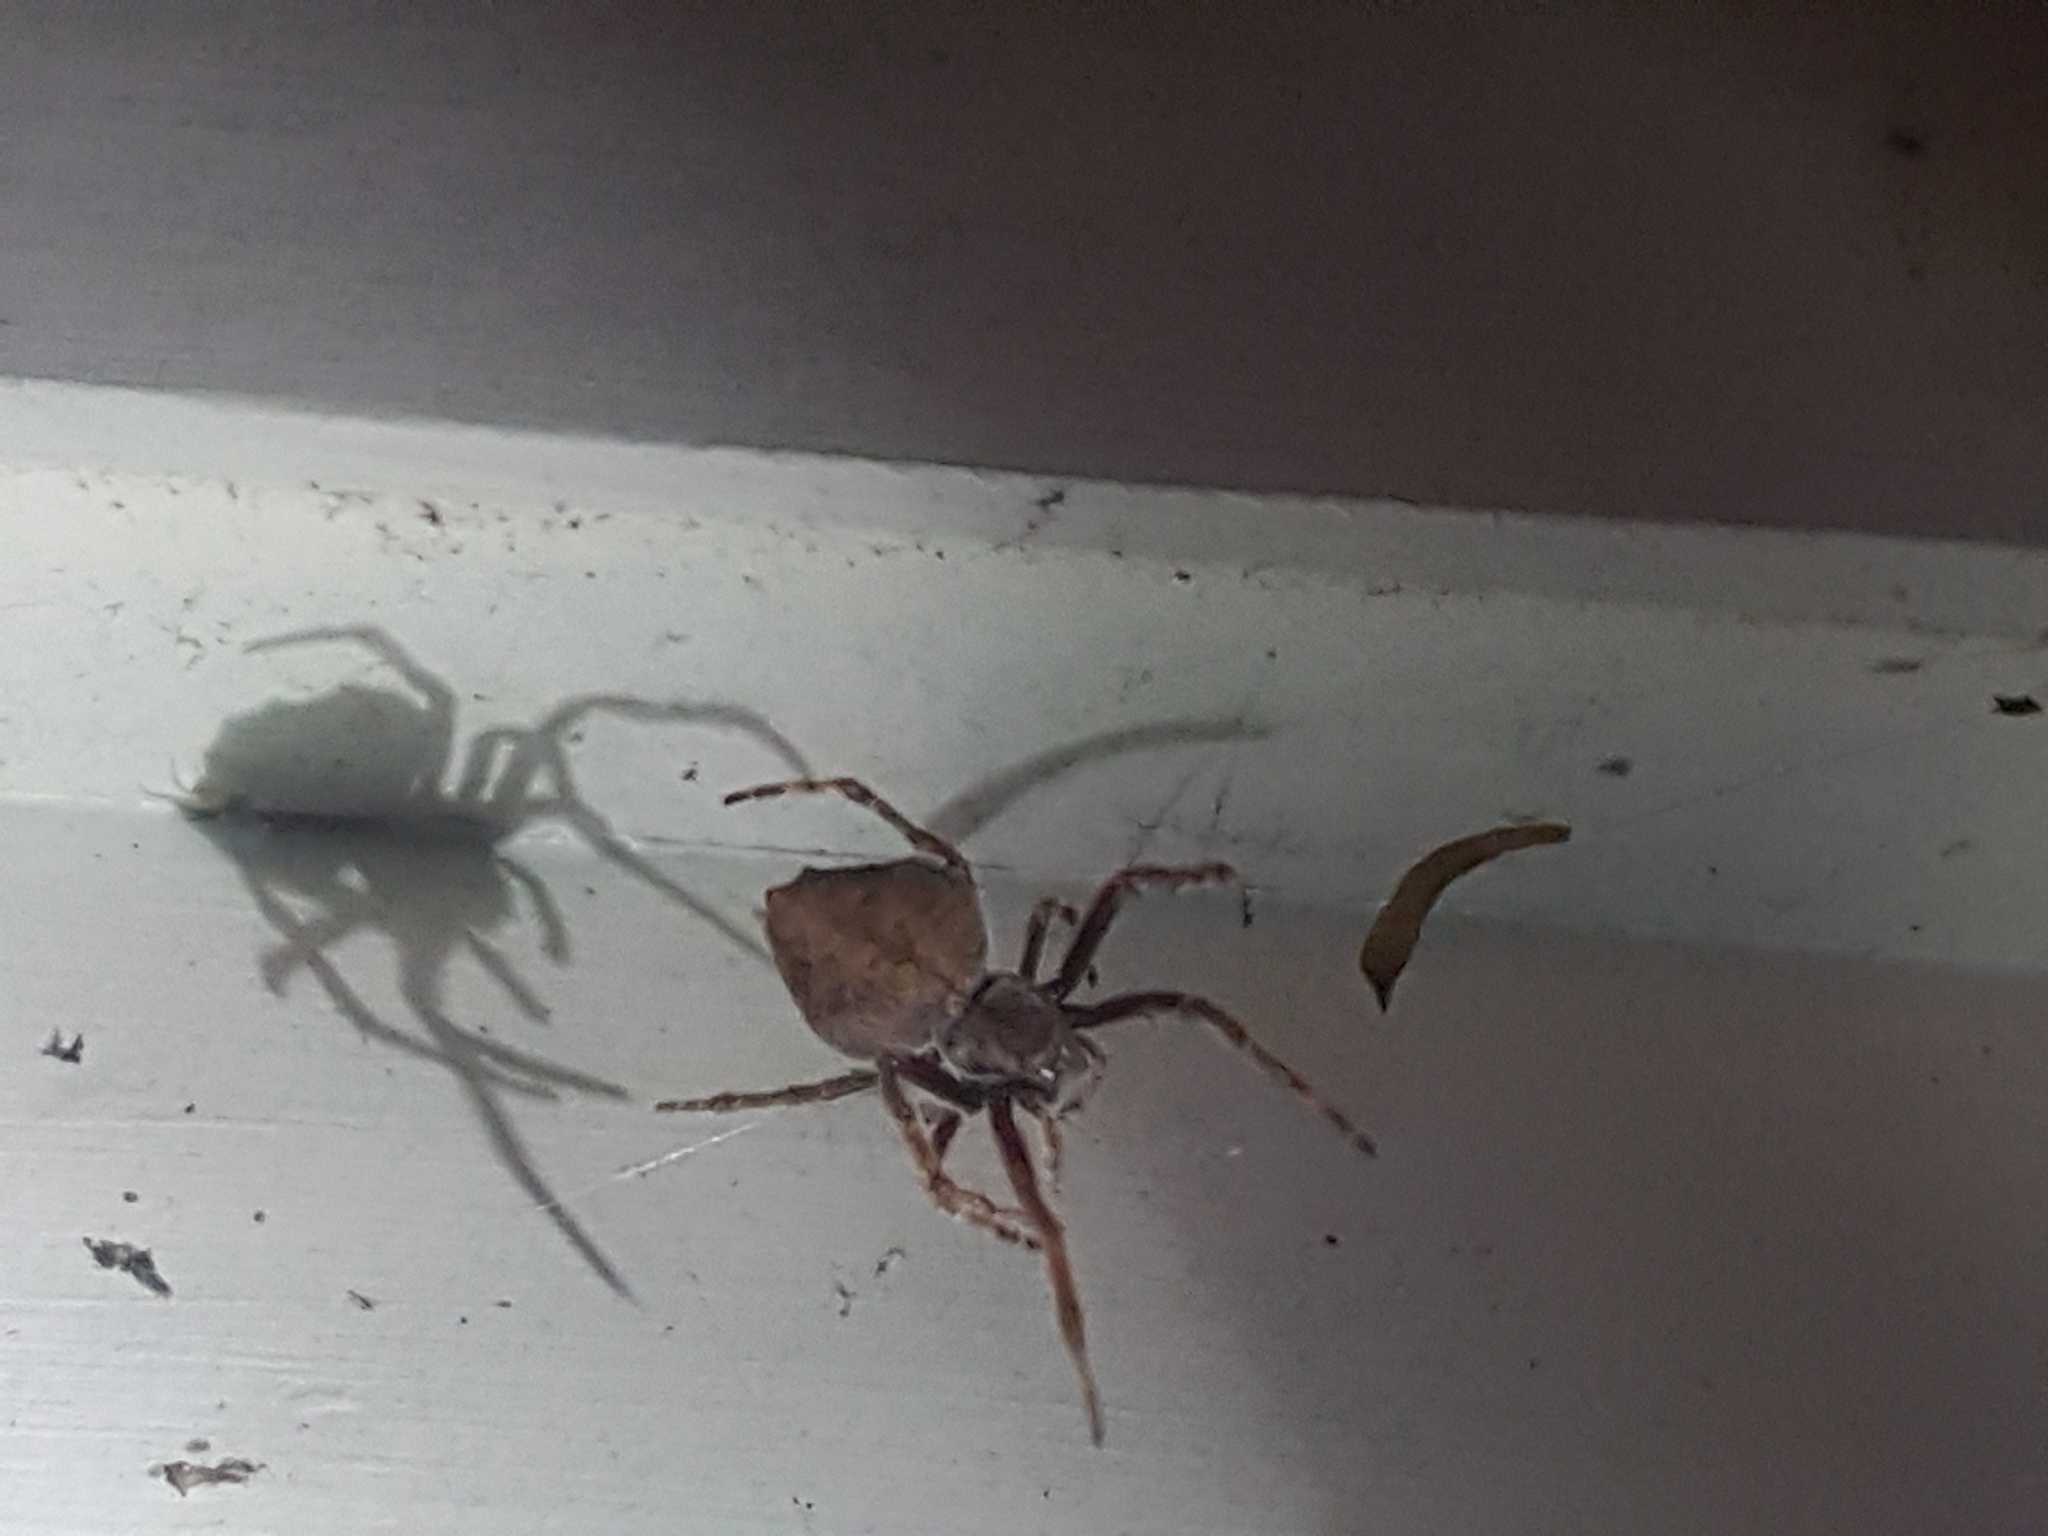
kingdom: Animalia
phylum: Arthropoda
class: Arachnida
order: Araneae
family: Araneidae
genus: Eriophora
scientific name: Eriophora pustulosa
